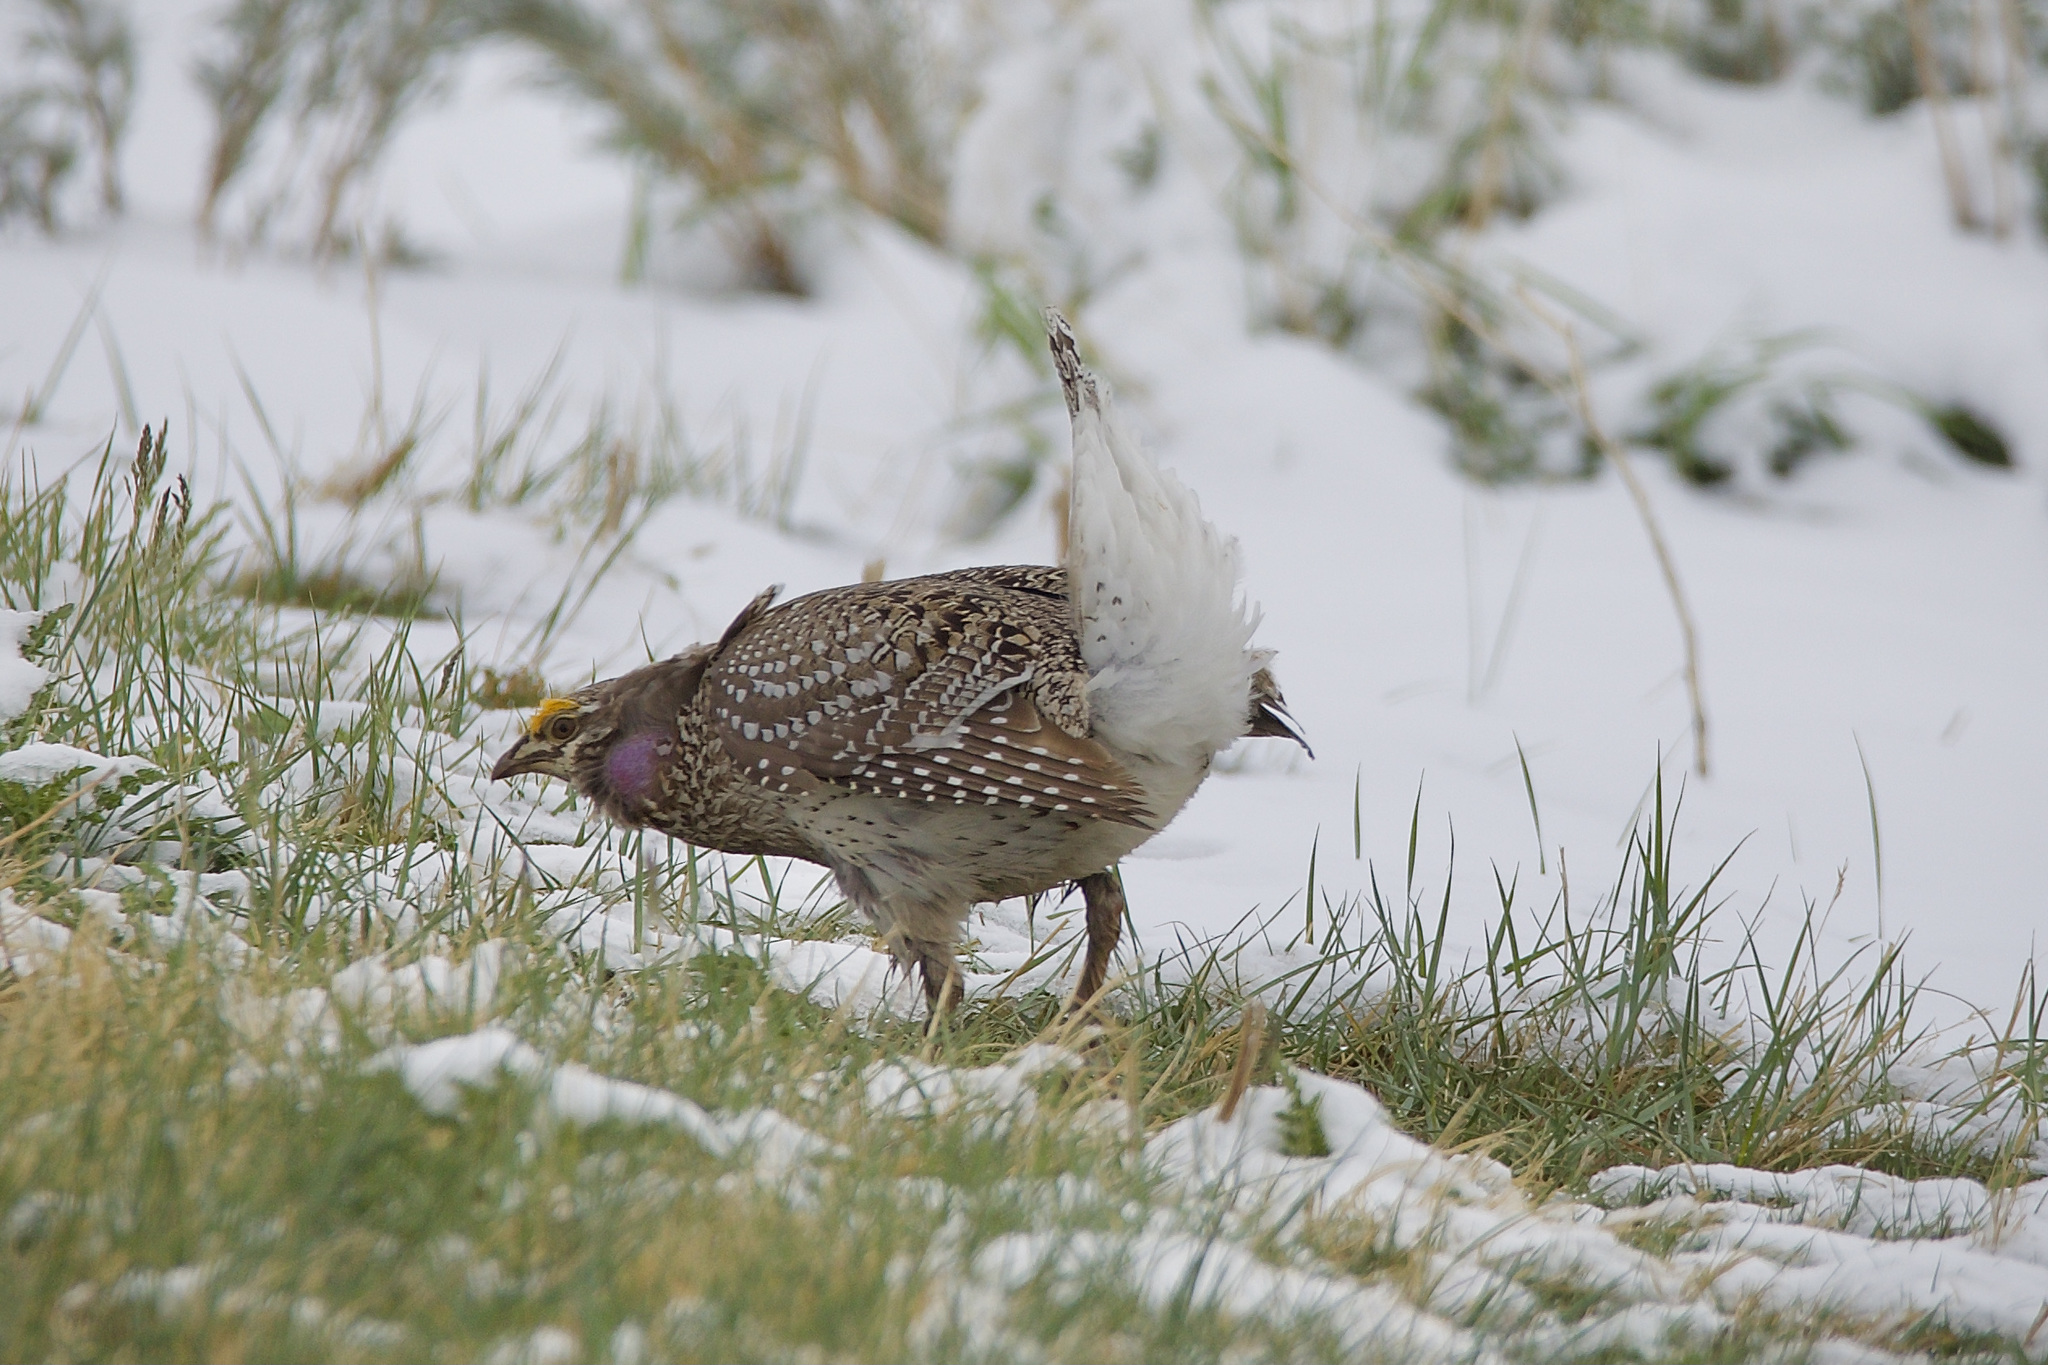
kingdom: Animalia
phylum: Chordata
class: Aves
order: Galliformes
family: Phasianidae
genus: Tympanuchus
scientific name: Tympanuchus phasianellus
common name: Sharp-tailed grouse
